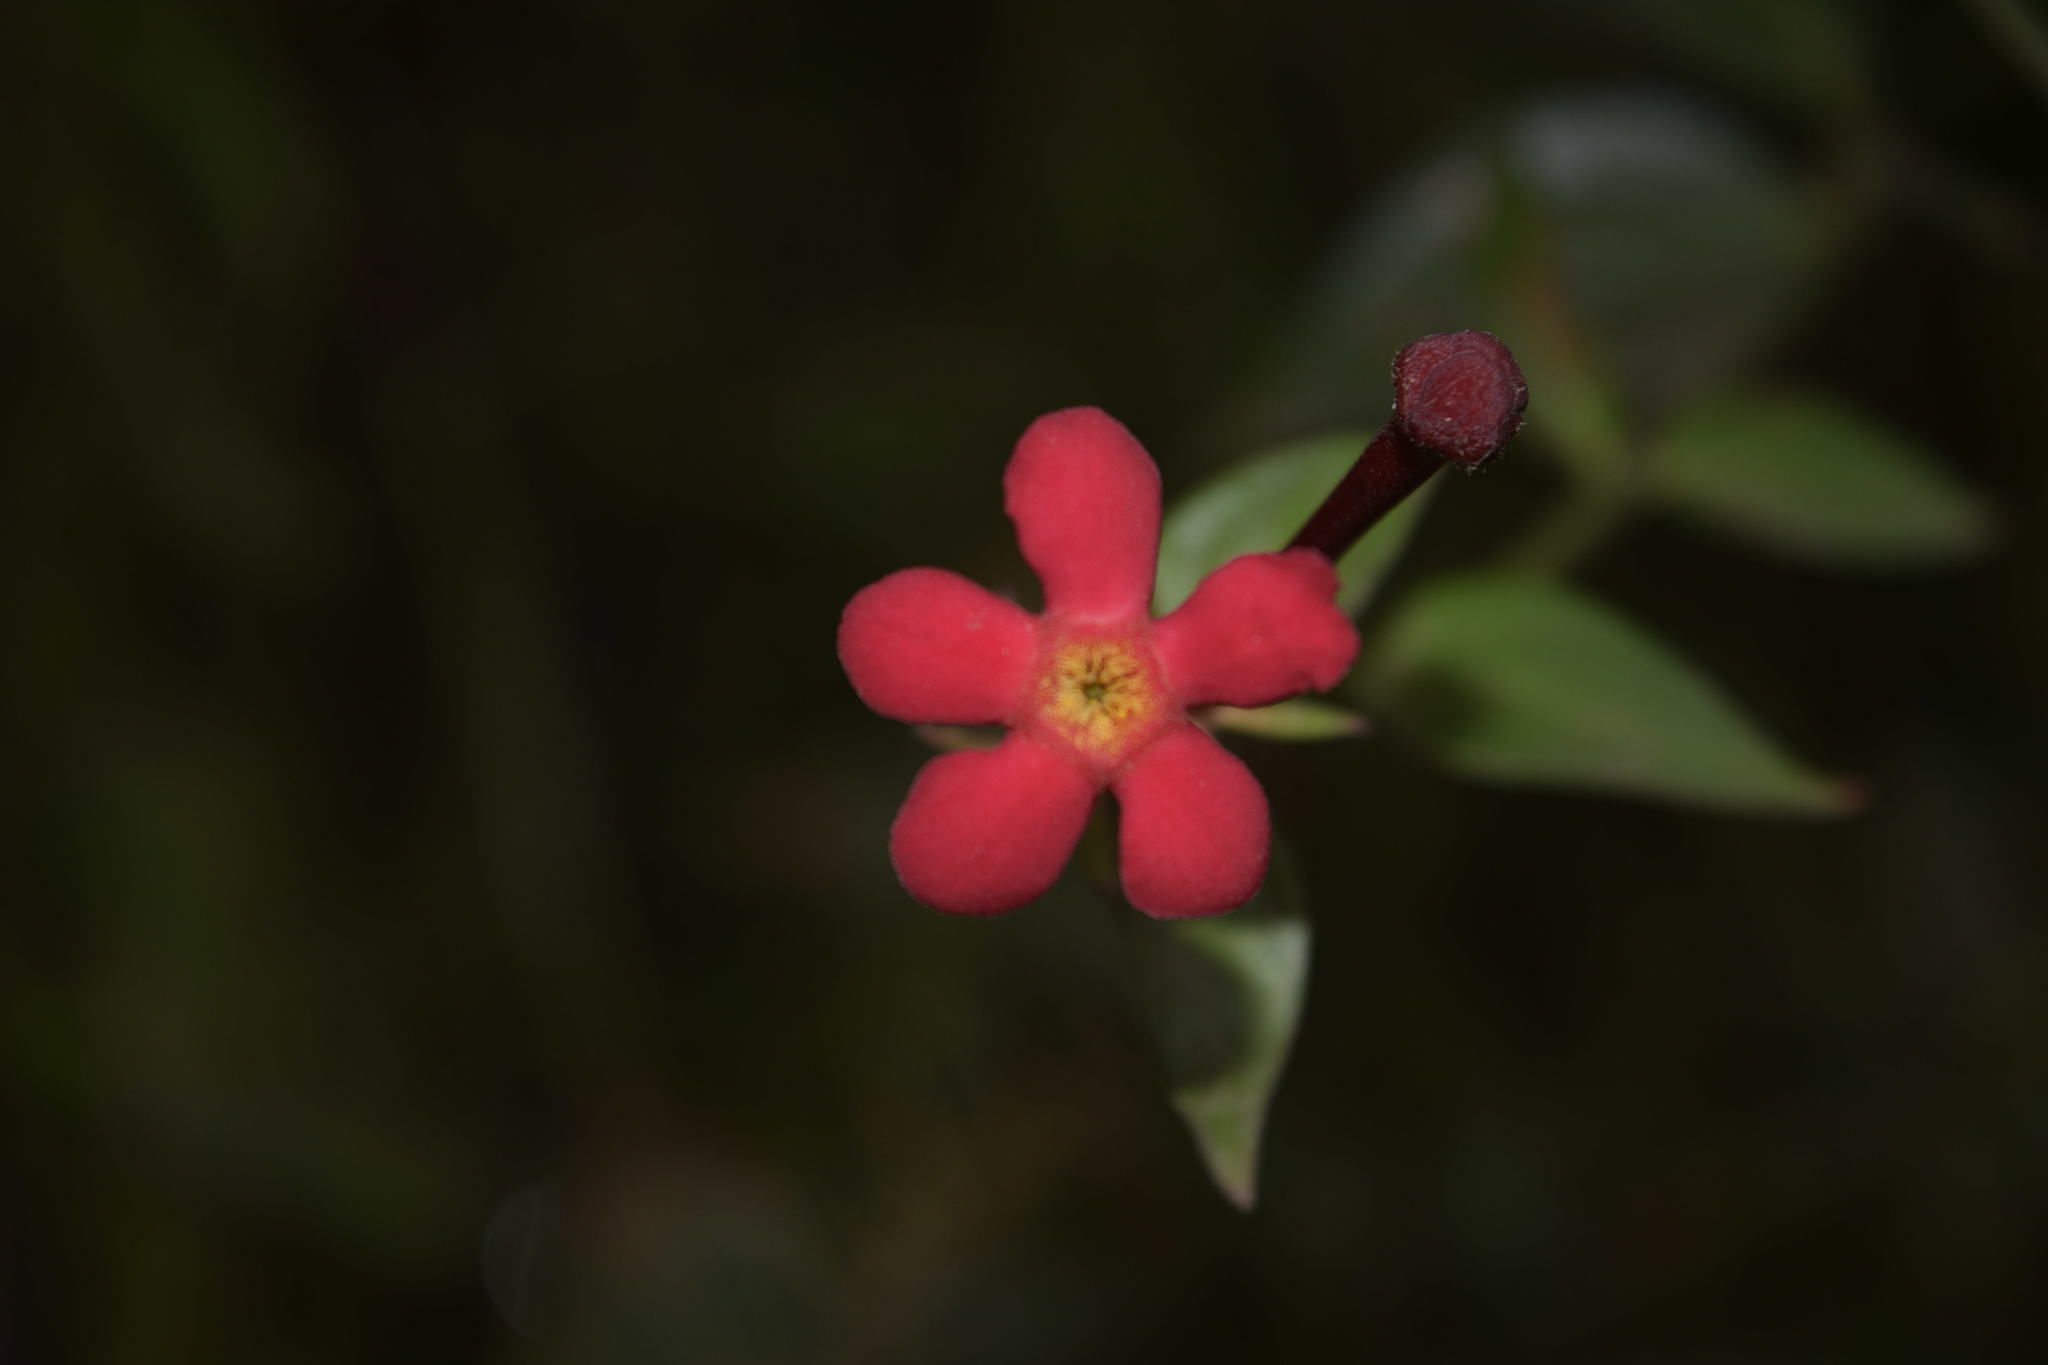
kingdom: Plantae
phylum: Tracheophyta
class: Magnoliopsida
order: Gentianales
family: Rubiaceae
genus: Rovaeanthus
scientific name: Rovaeanthus strigosus
